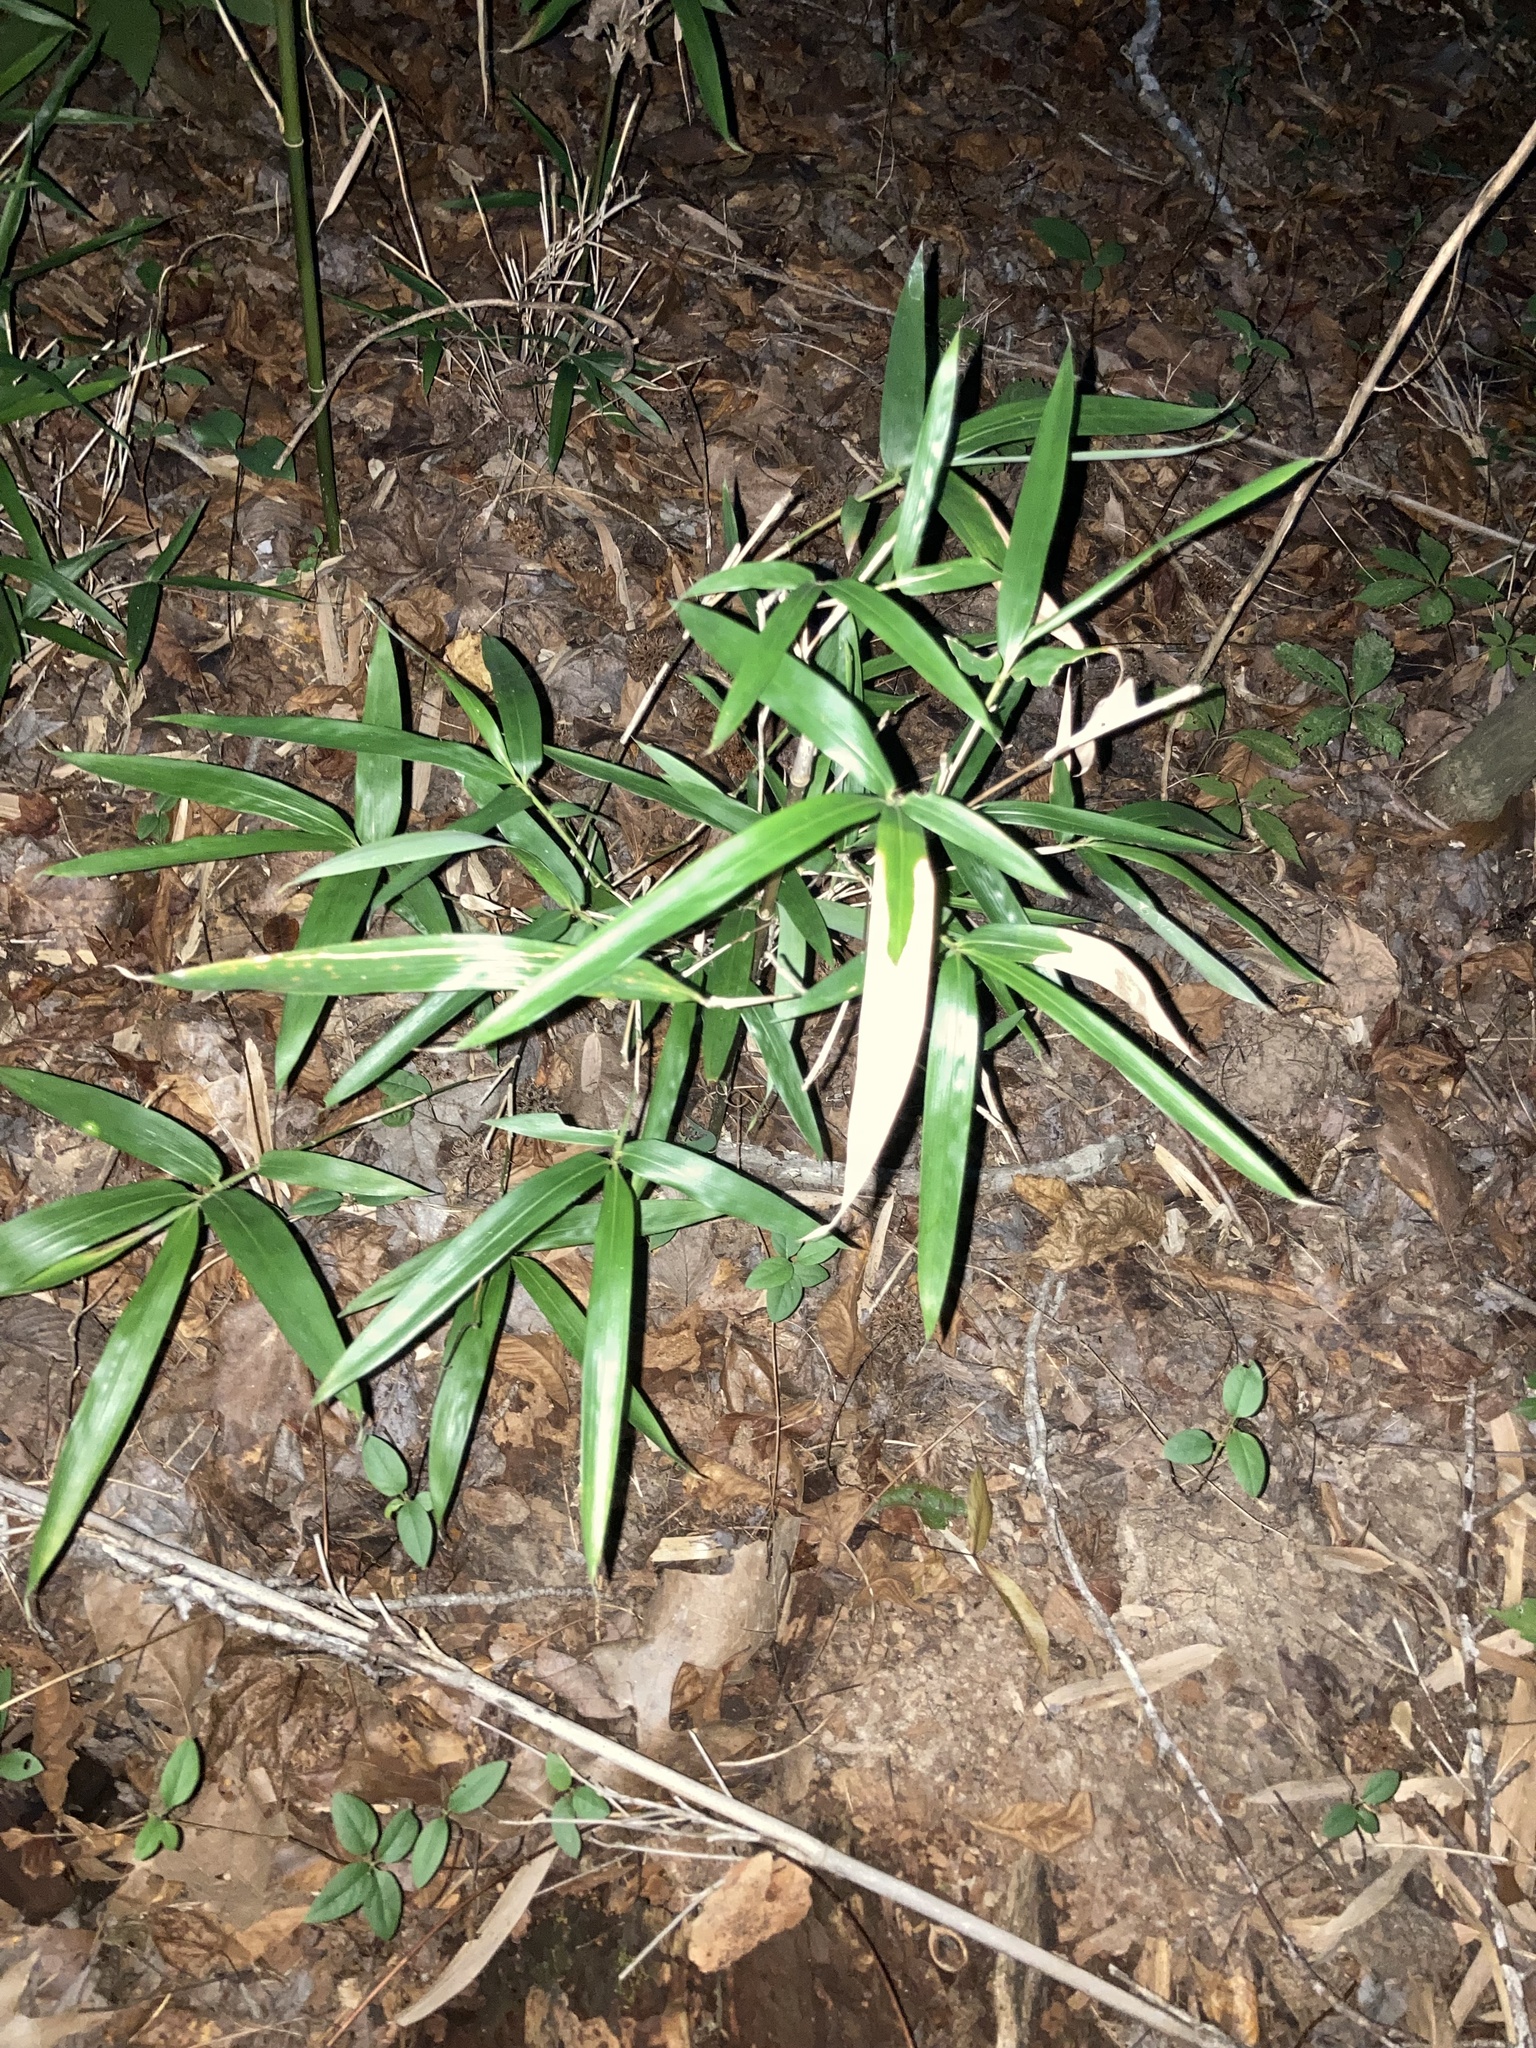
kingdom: Plantae
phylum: Tracheophyta
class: Liliopsida
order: Poales
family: Poaceae
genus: Arundinaria
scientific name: Arundinaria gigantea
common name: Giant cane
